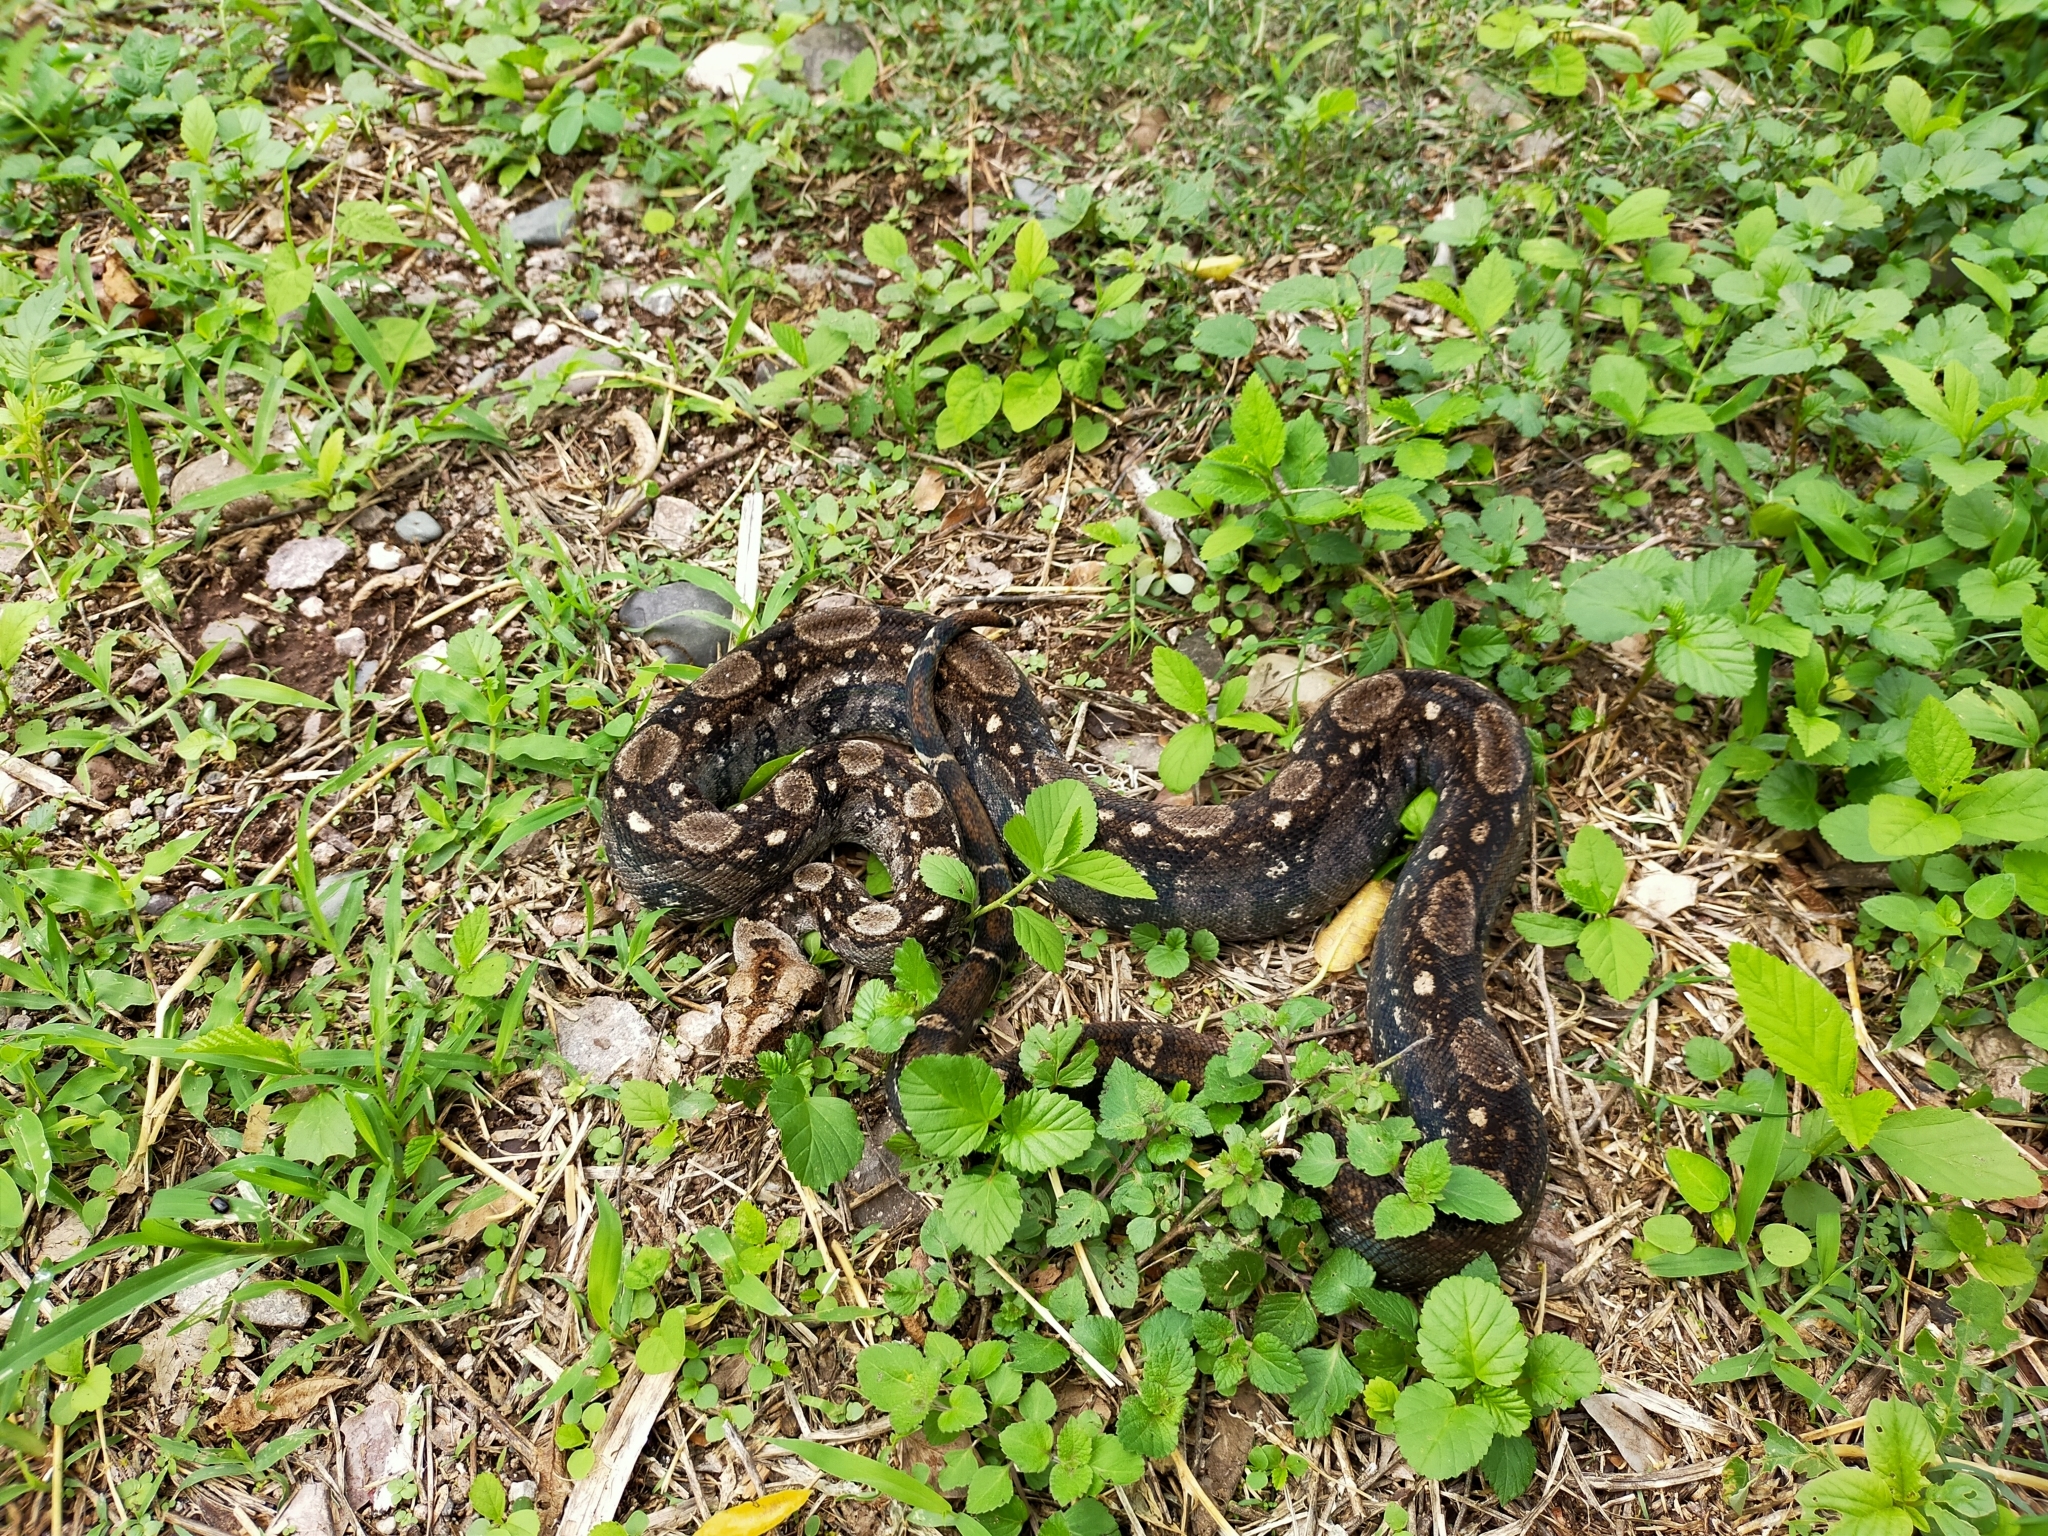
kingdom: Animalia
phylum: Chordata
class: Squamata
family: Boidae
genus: Boa
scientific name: Boa
